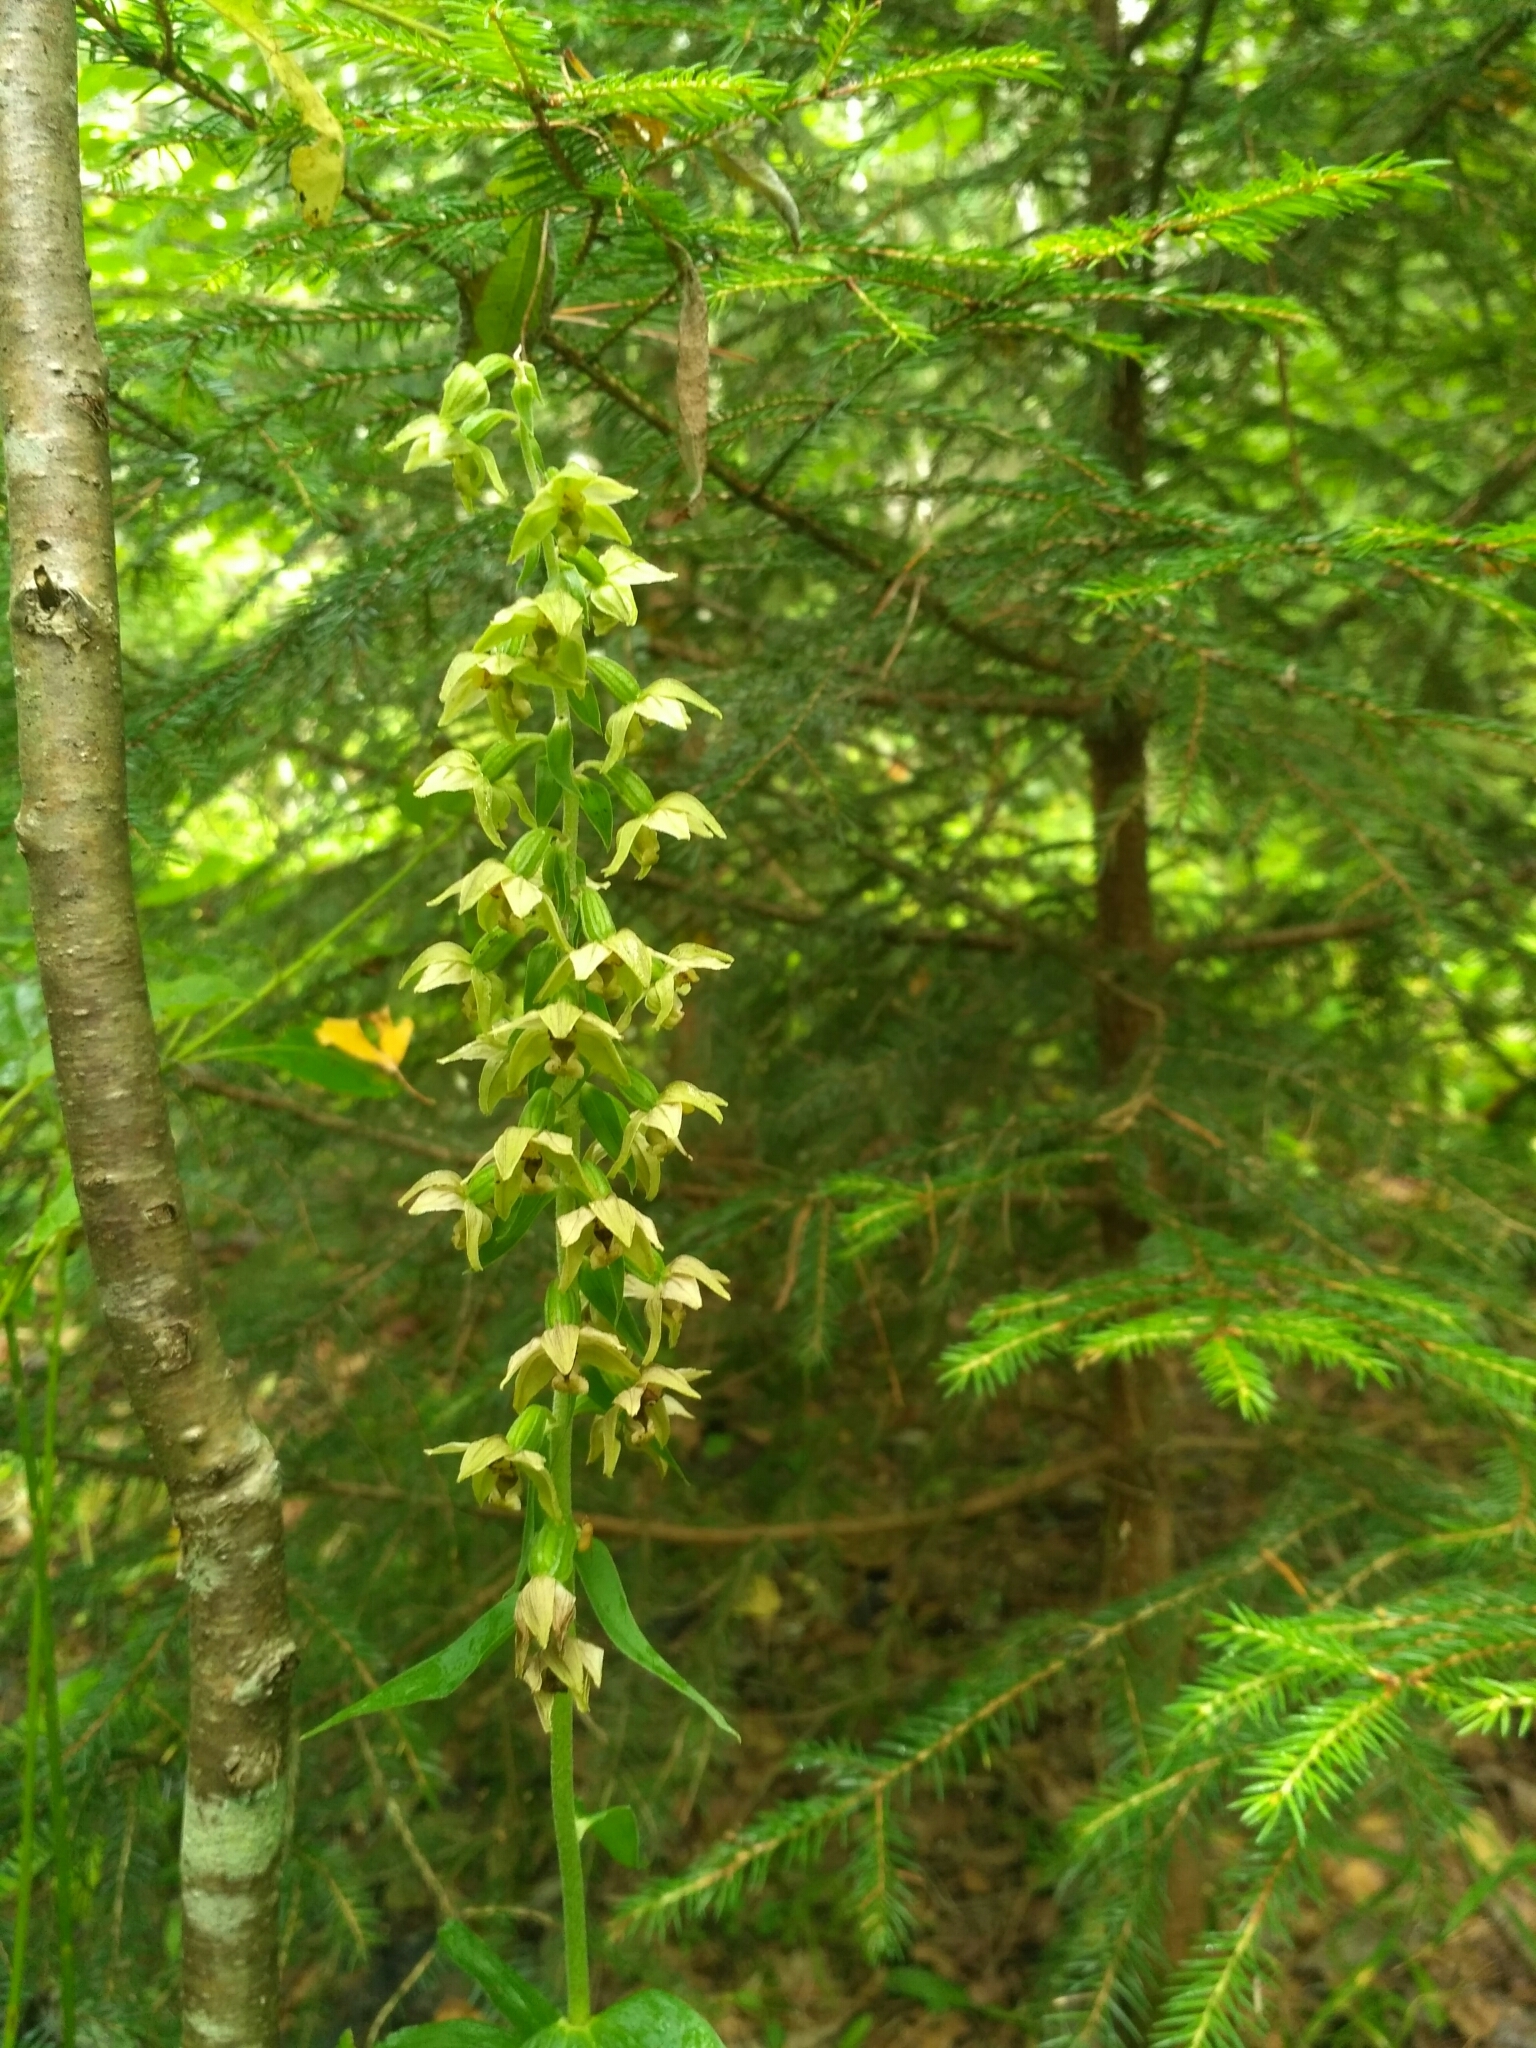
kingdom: Plantae
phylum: Tracheophyta
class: Liliopsida
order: Asparagales
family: Orchidaceae
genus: Epipactis
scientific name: Epipactis helleborine
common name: Broad-leaved helleborine
